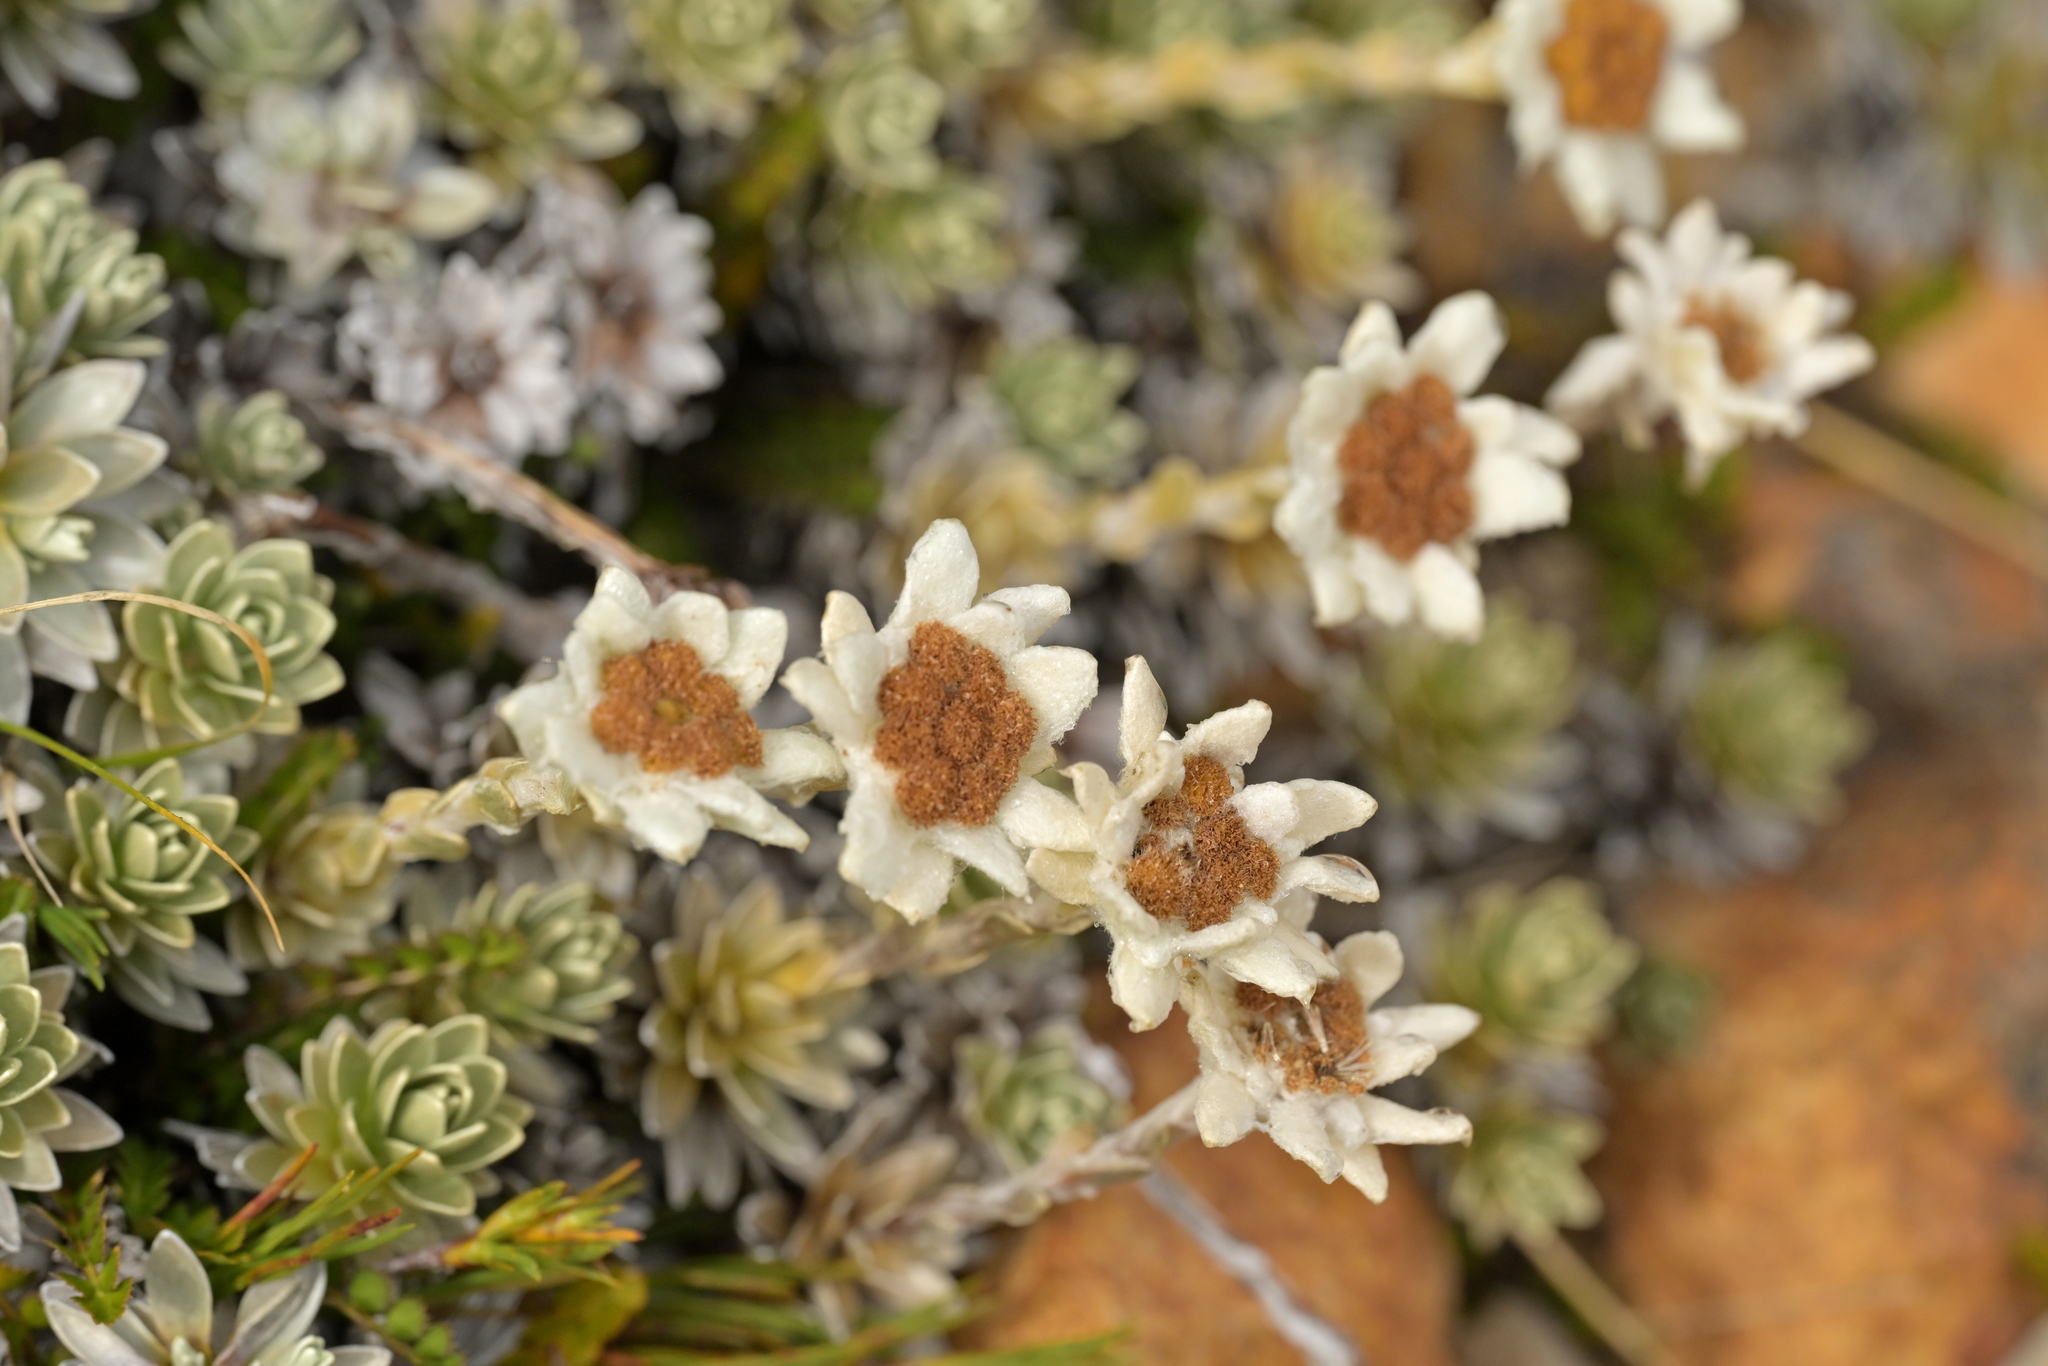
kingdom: Plantae
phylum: Tracheophyta
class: Magnoliopsida
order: Asterales
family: Asteraceae
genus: Leucogenes
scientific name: Leucogenes leontopodium
